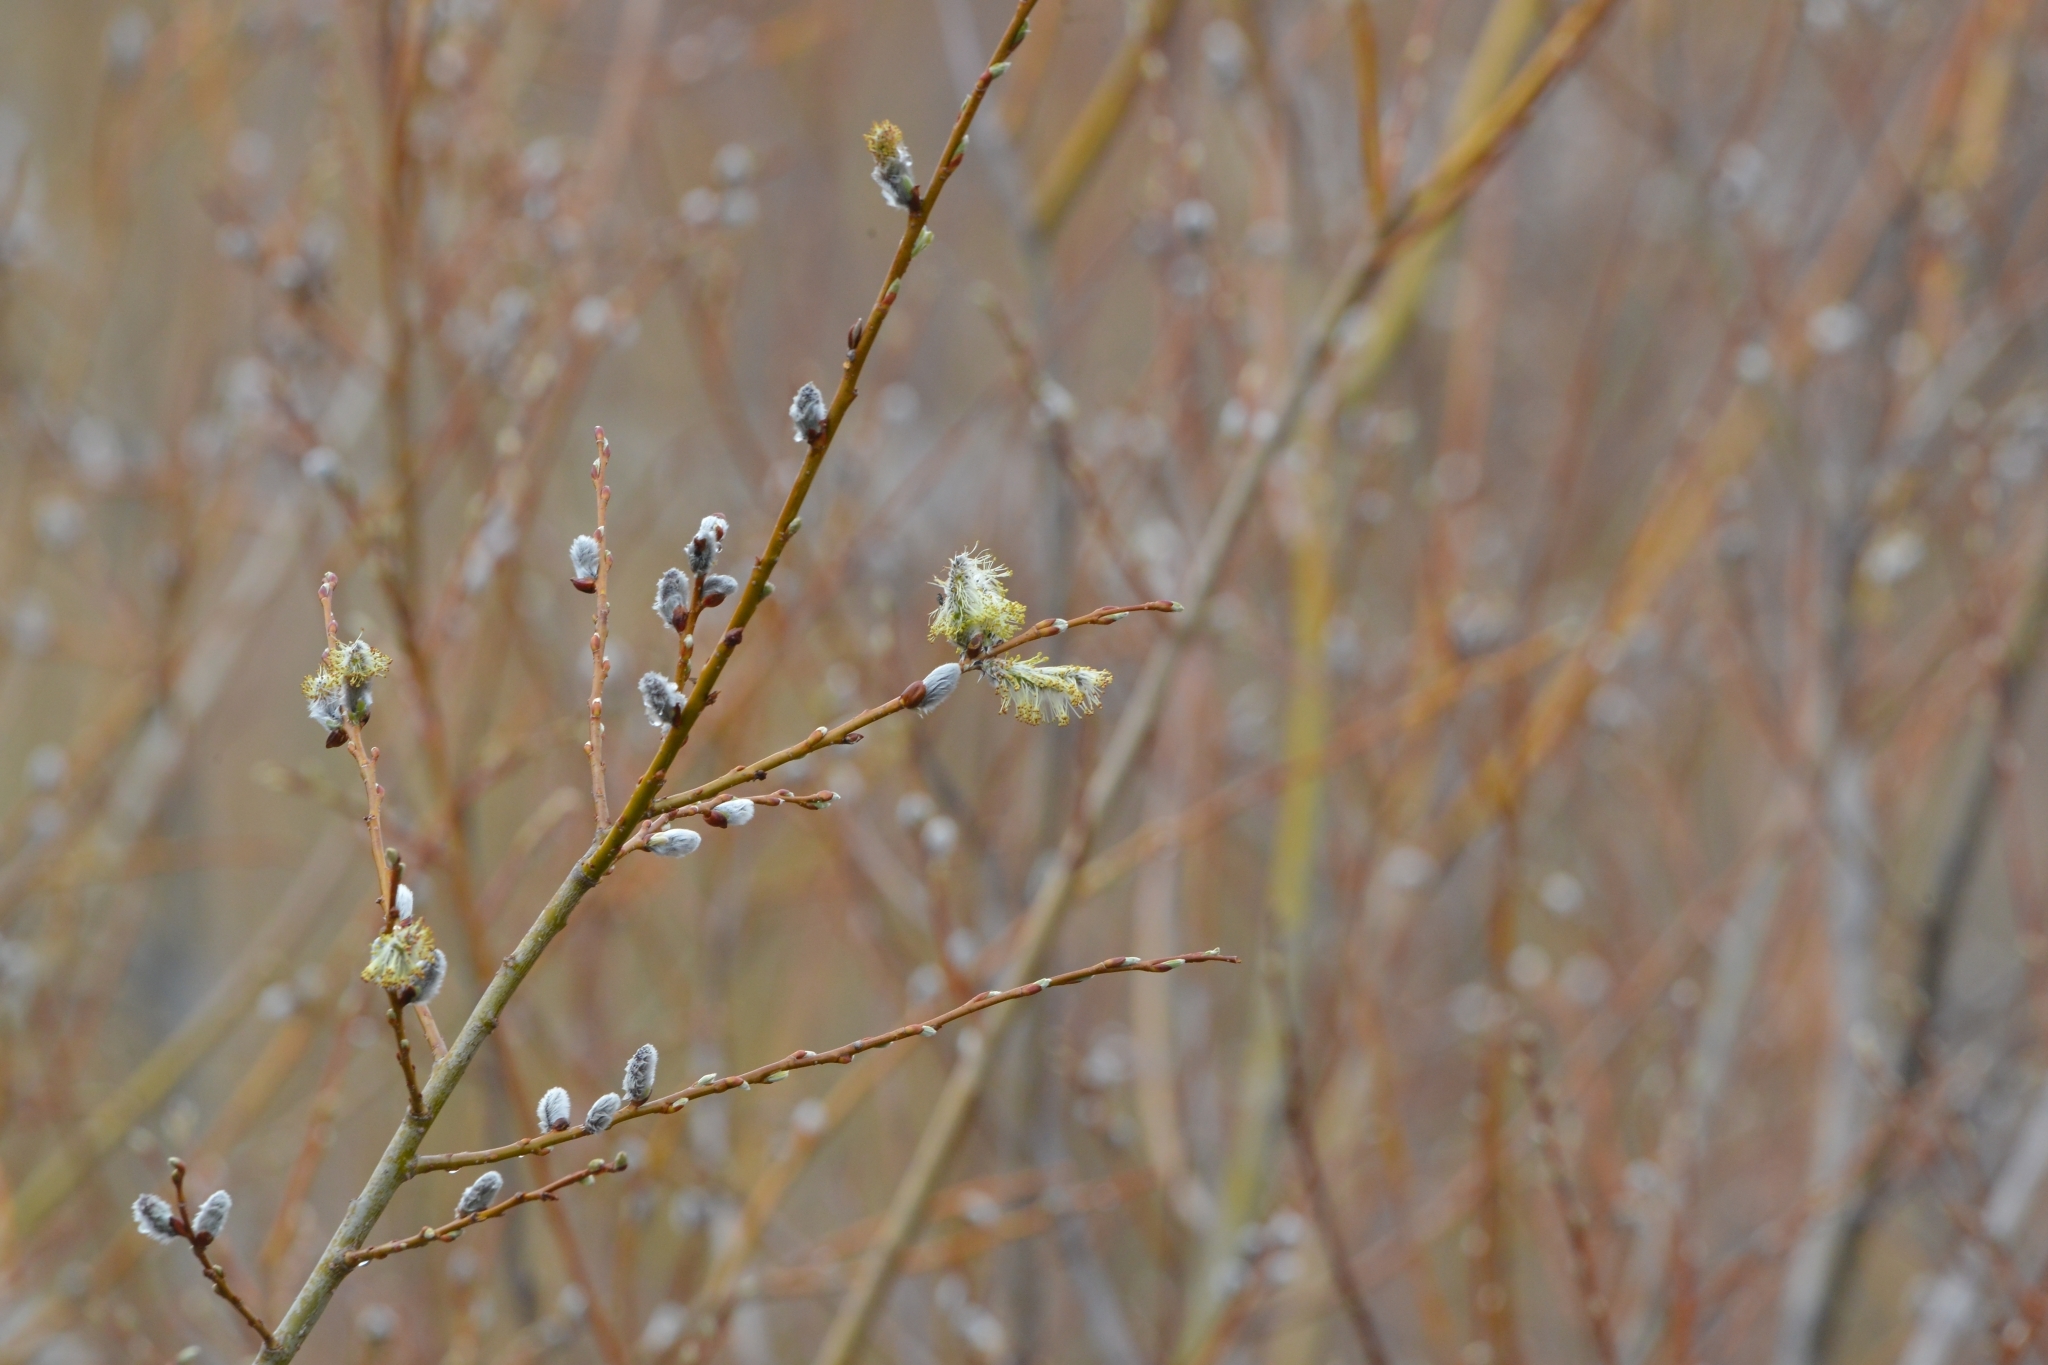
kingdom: Plantae
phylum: Tracheophyta
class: Magnoliopsida
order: Malpighiales
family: Salicaceae
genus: Salix
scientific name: Salix caprea
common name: Goat willow
